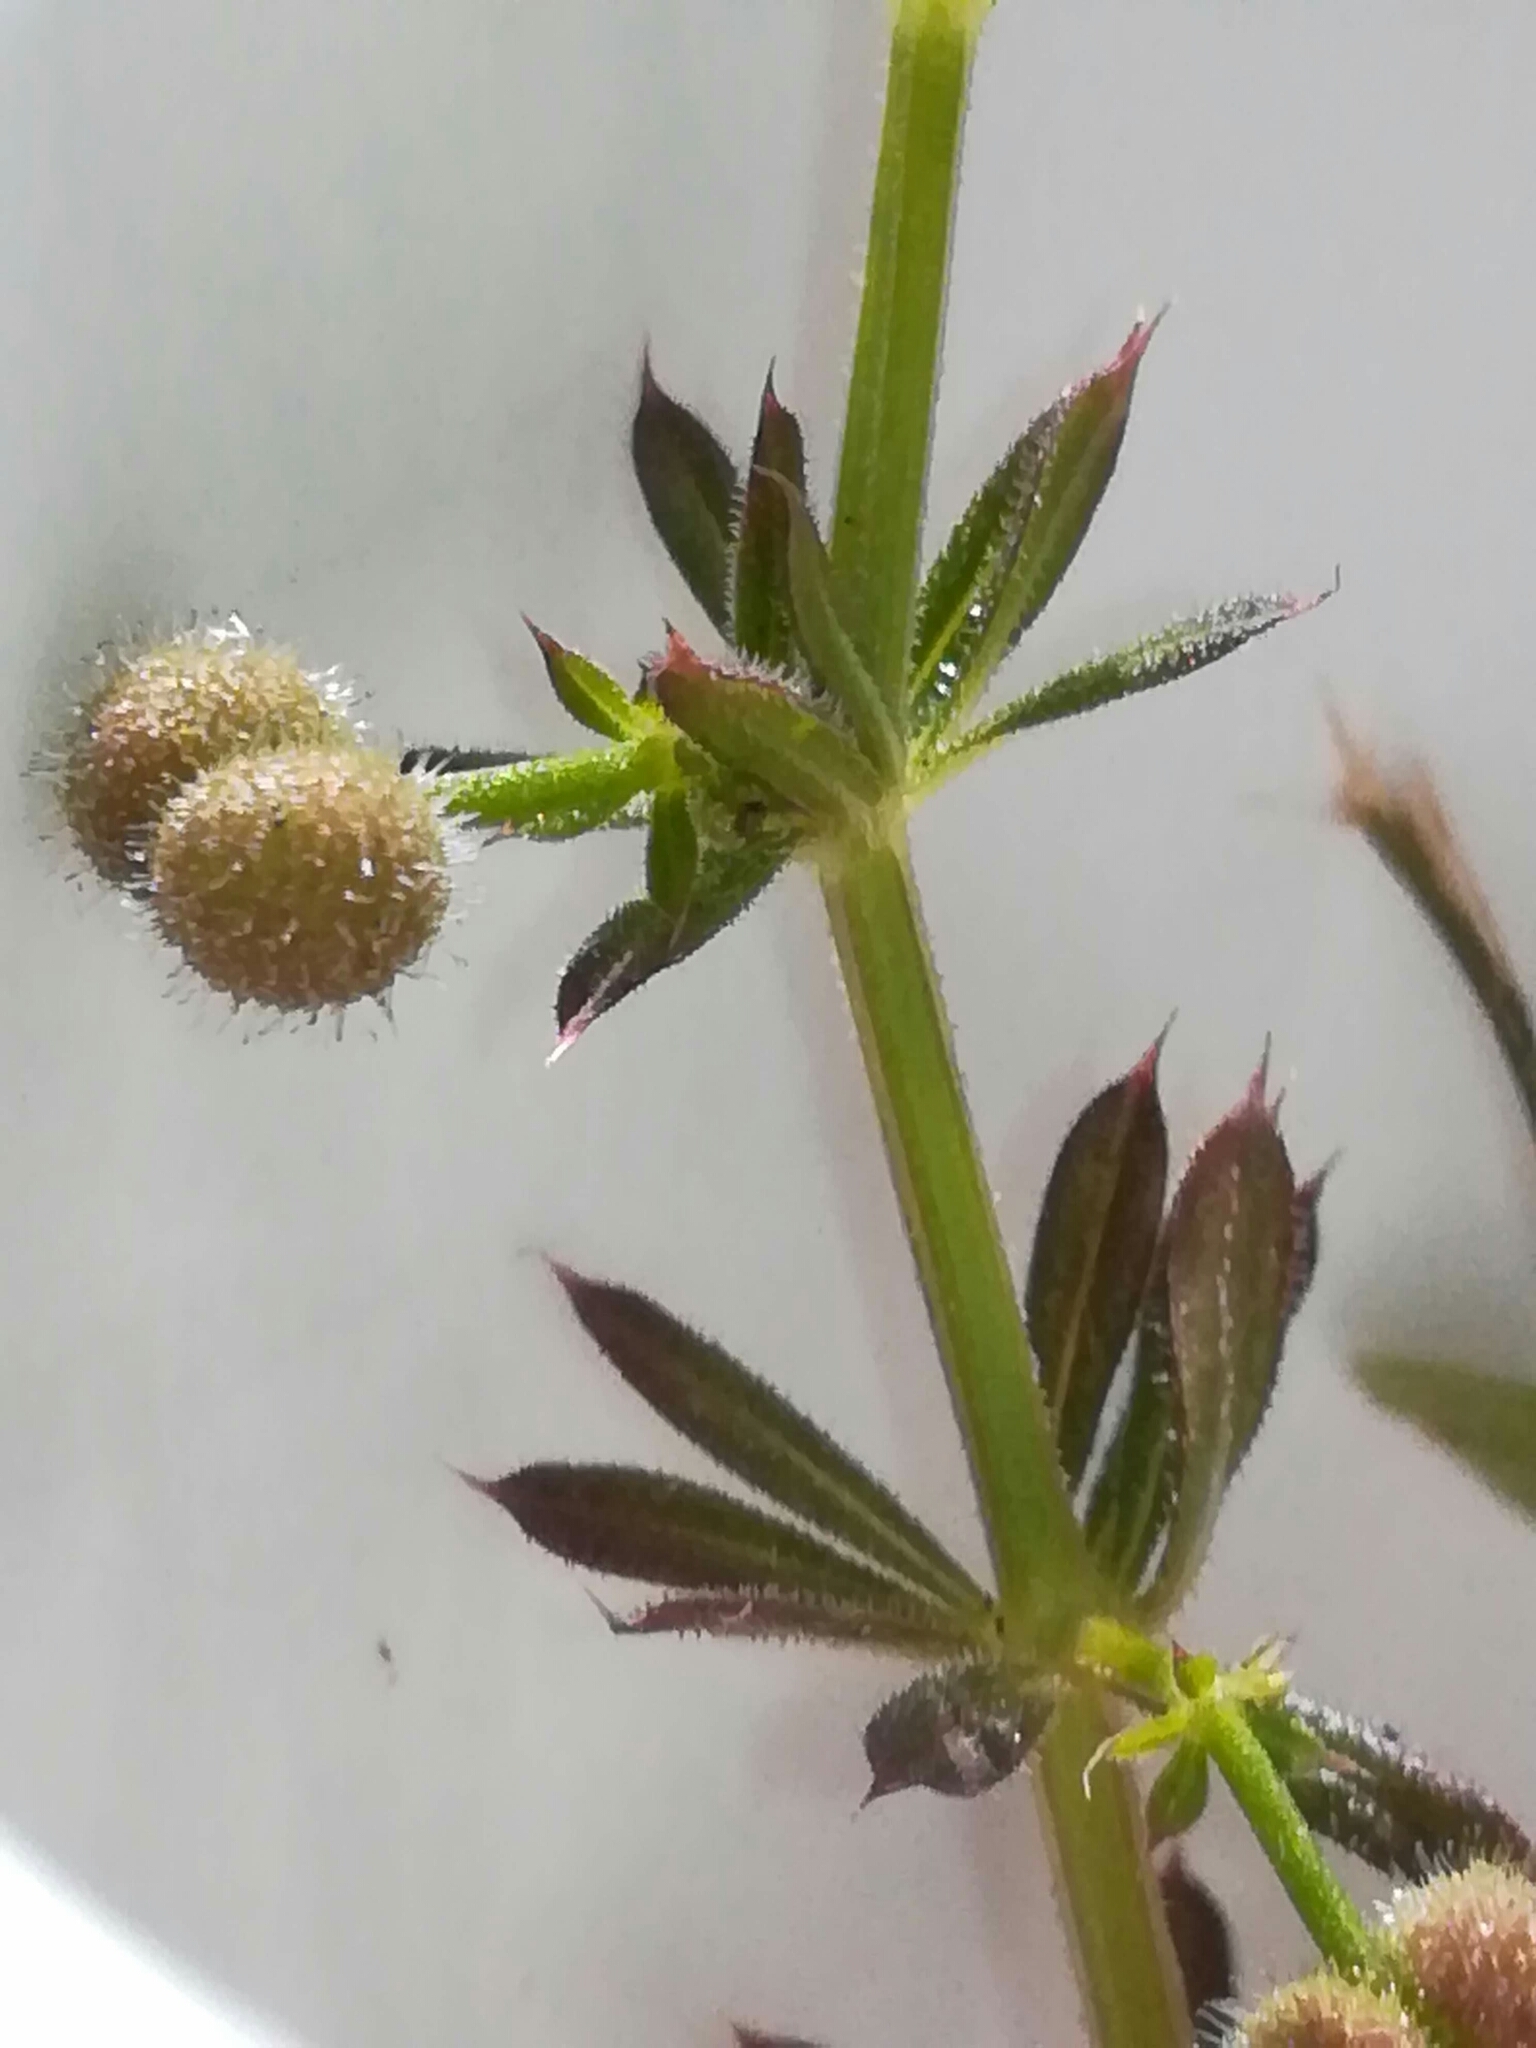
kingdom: Plantae
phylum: Tracheophyta
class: Magnoliopsida
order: Gentianales
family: Rubiaceae
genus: Galium
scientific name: Galium aparine
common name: Cleavers
